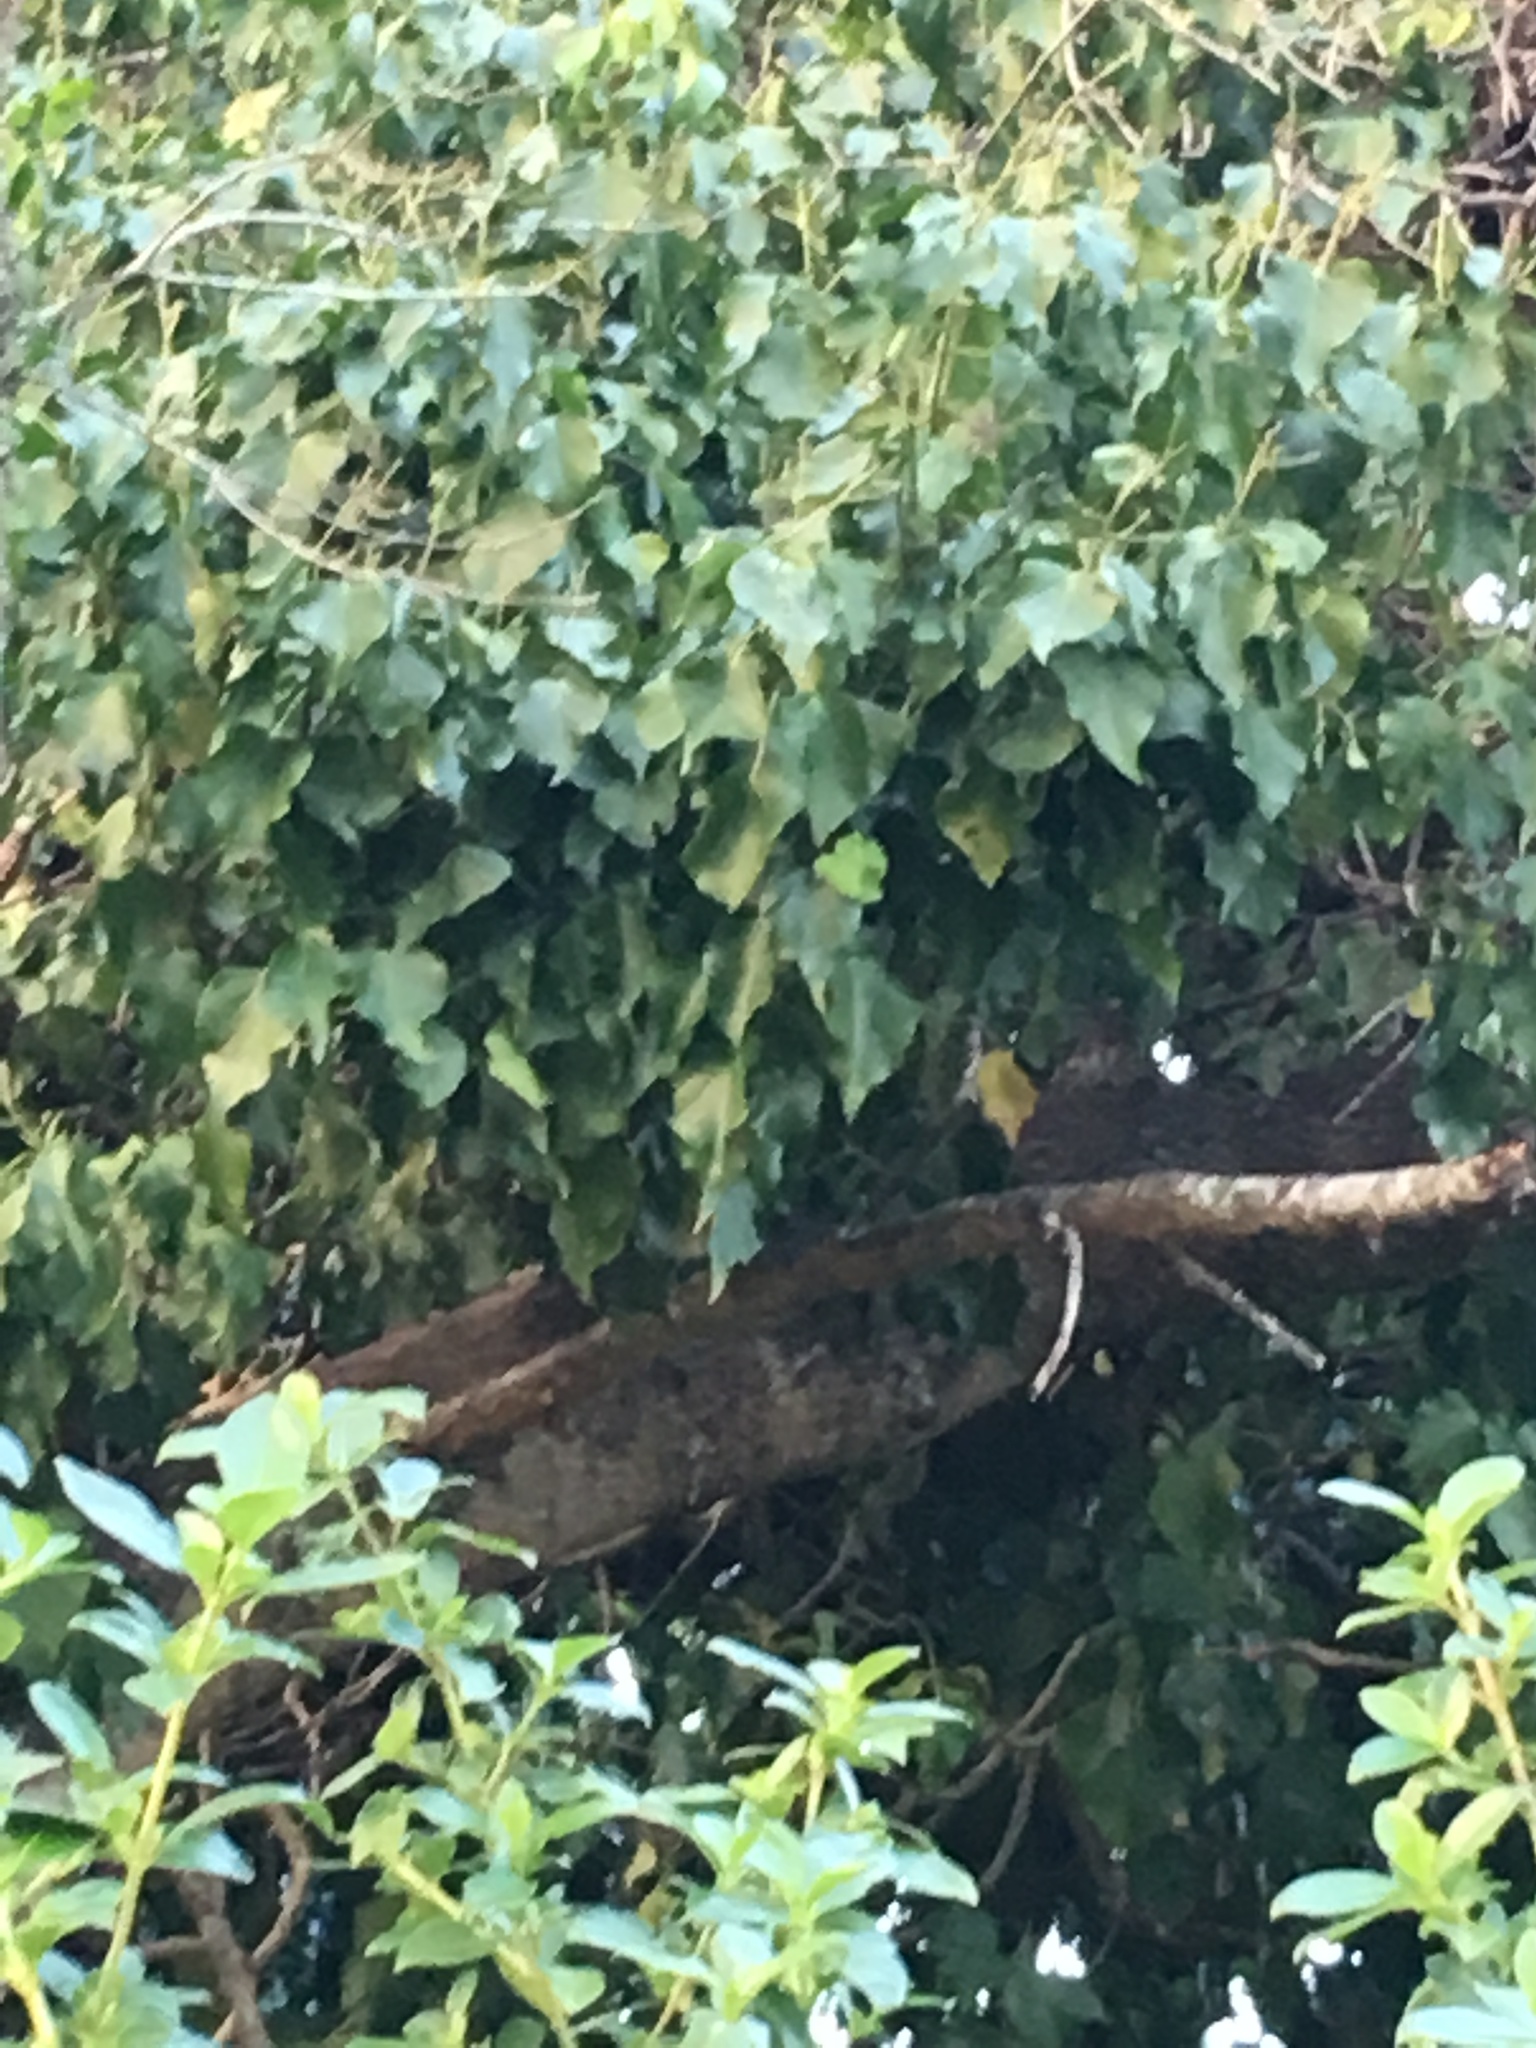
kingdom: Plantae
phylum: Tracheophyta
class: Magnoliopsida
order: Apiales
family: Araliaceae
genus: Hedera
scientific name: Hedera helix
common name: Ivy
